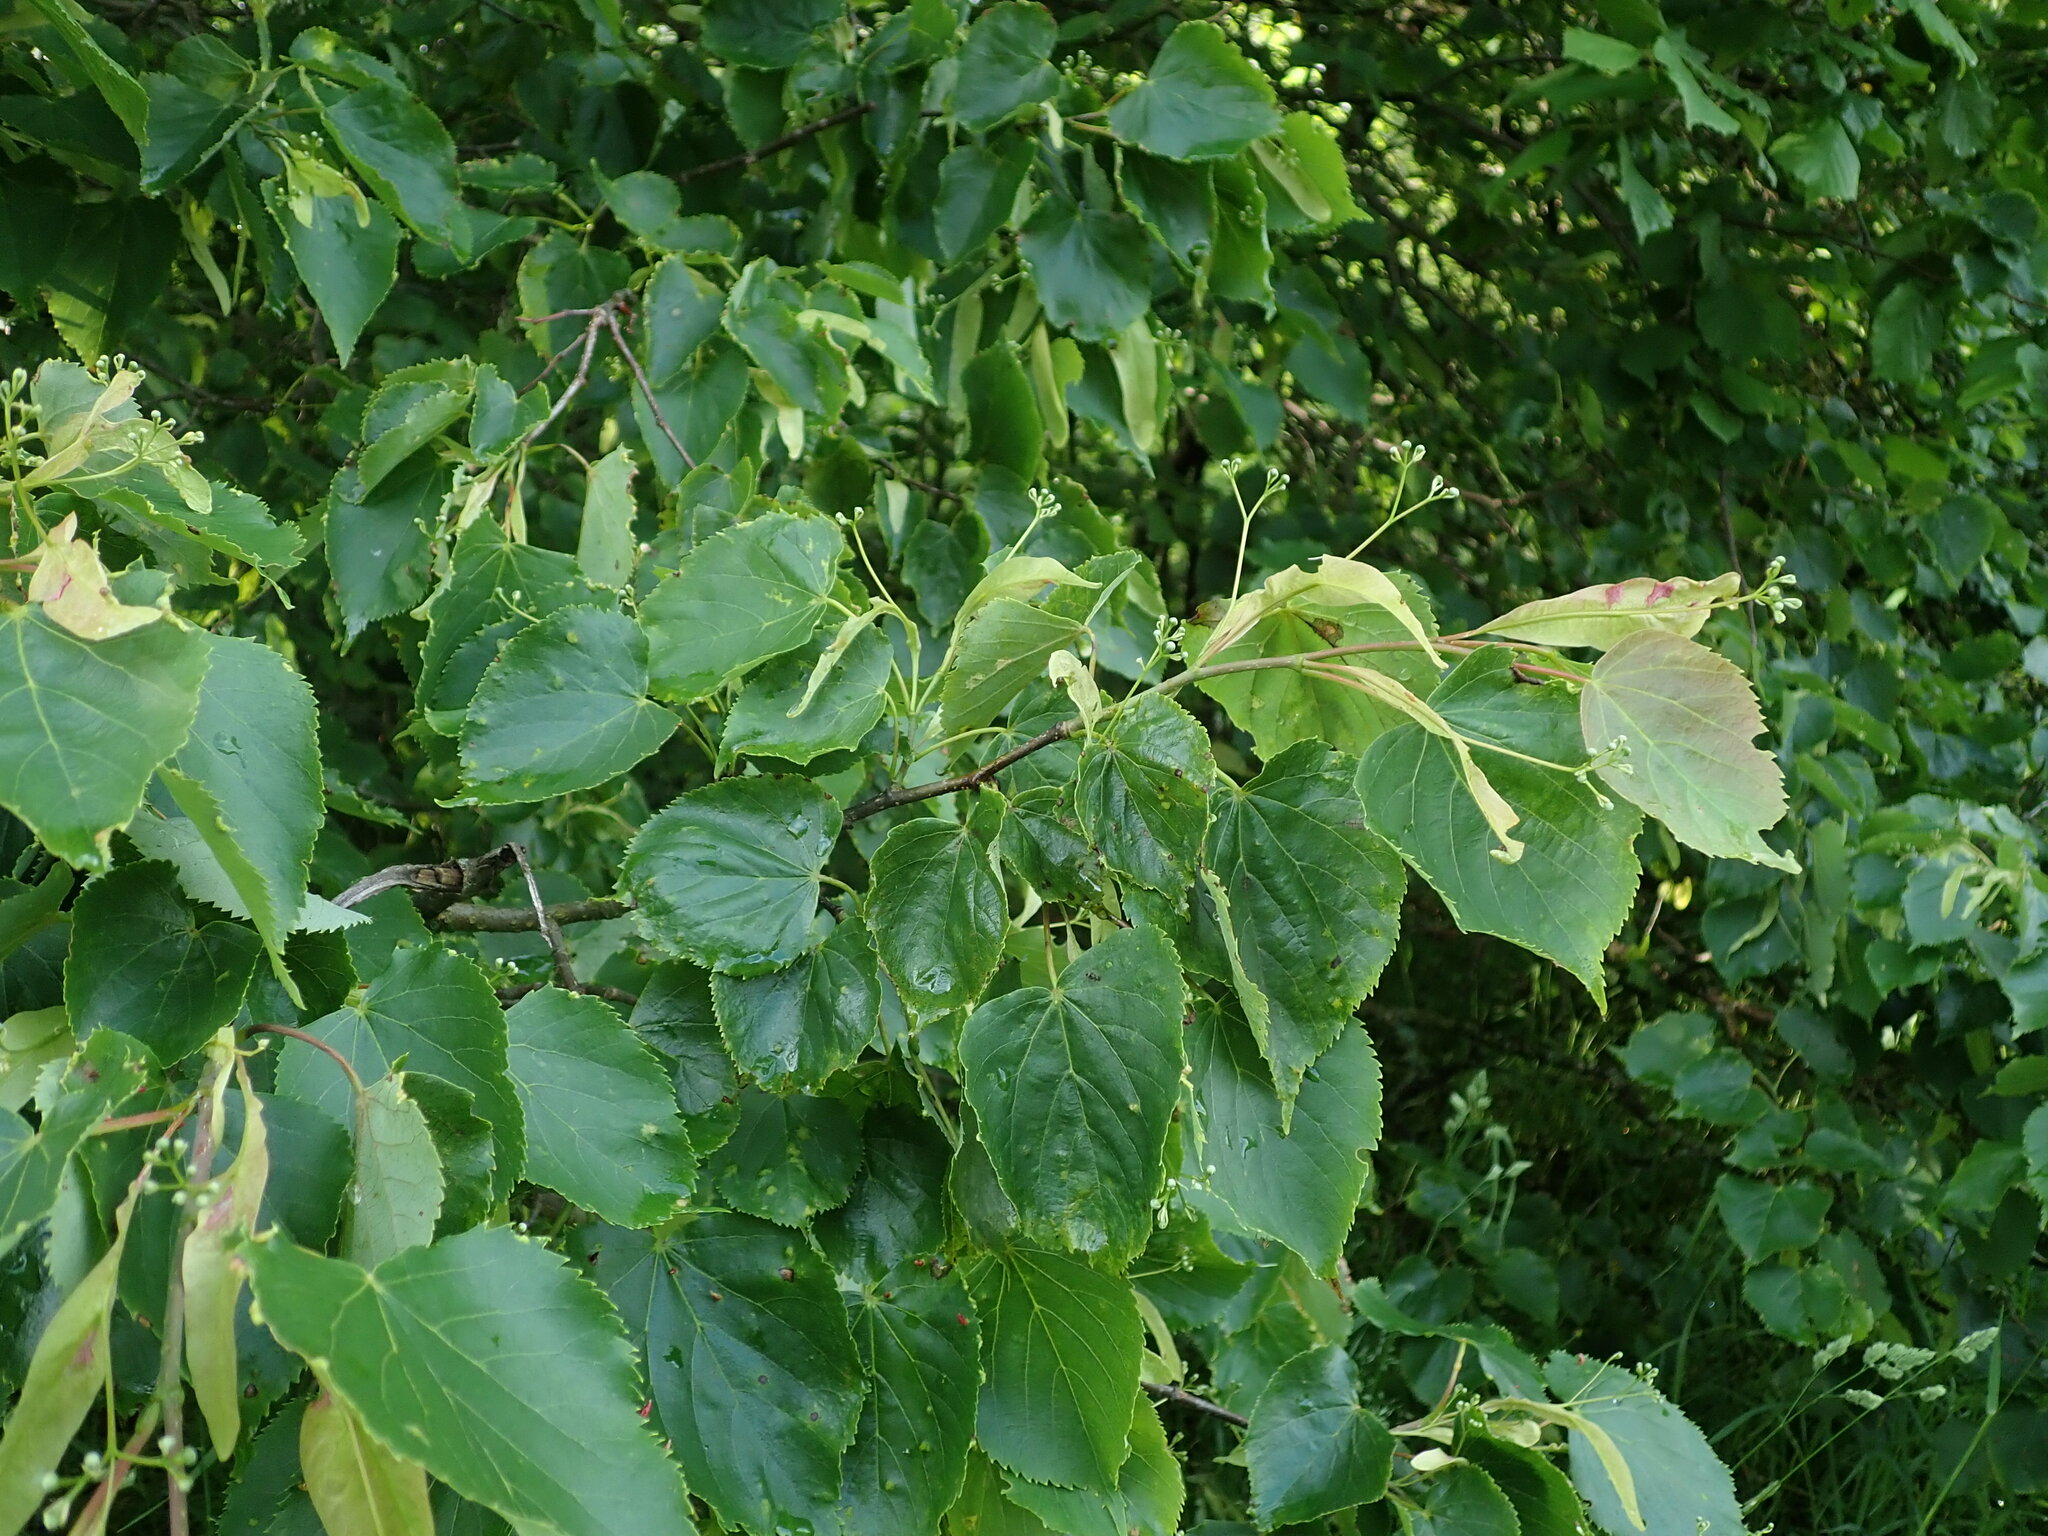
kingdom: Plantae
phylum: Tracheophyta
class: Magnoliopsida
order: Malvales
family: Malvaceae
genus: Tilia
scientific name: Tilia cordata
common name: Small-leaved lime
